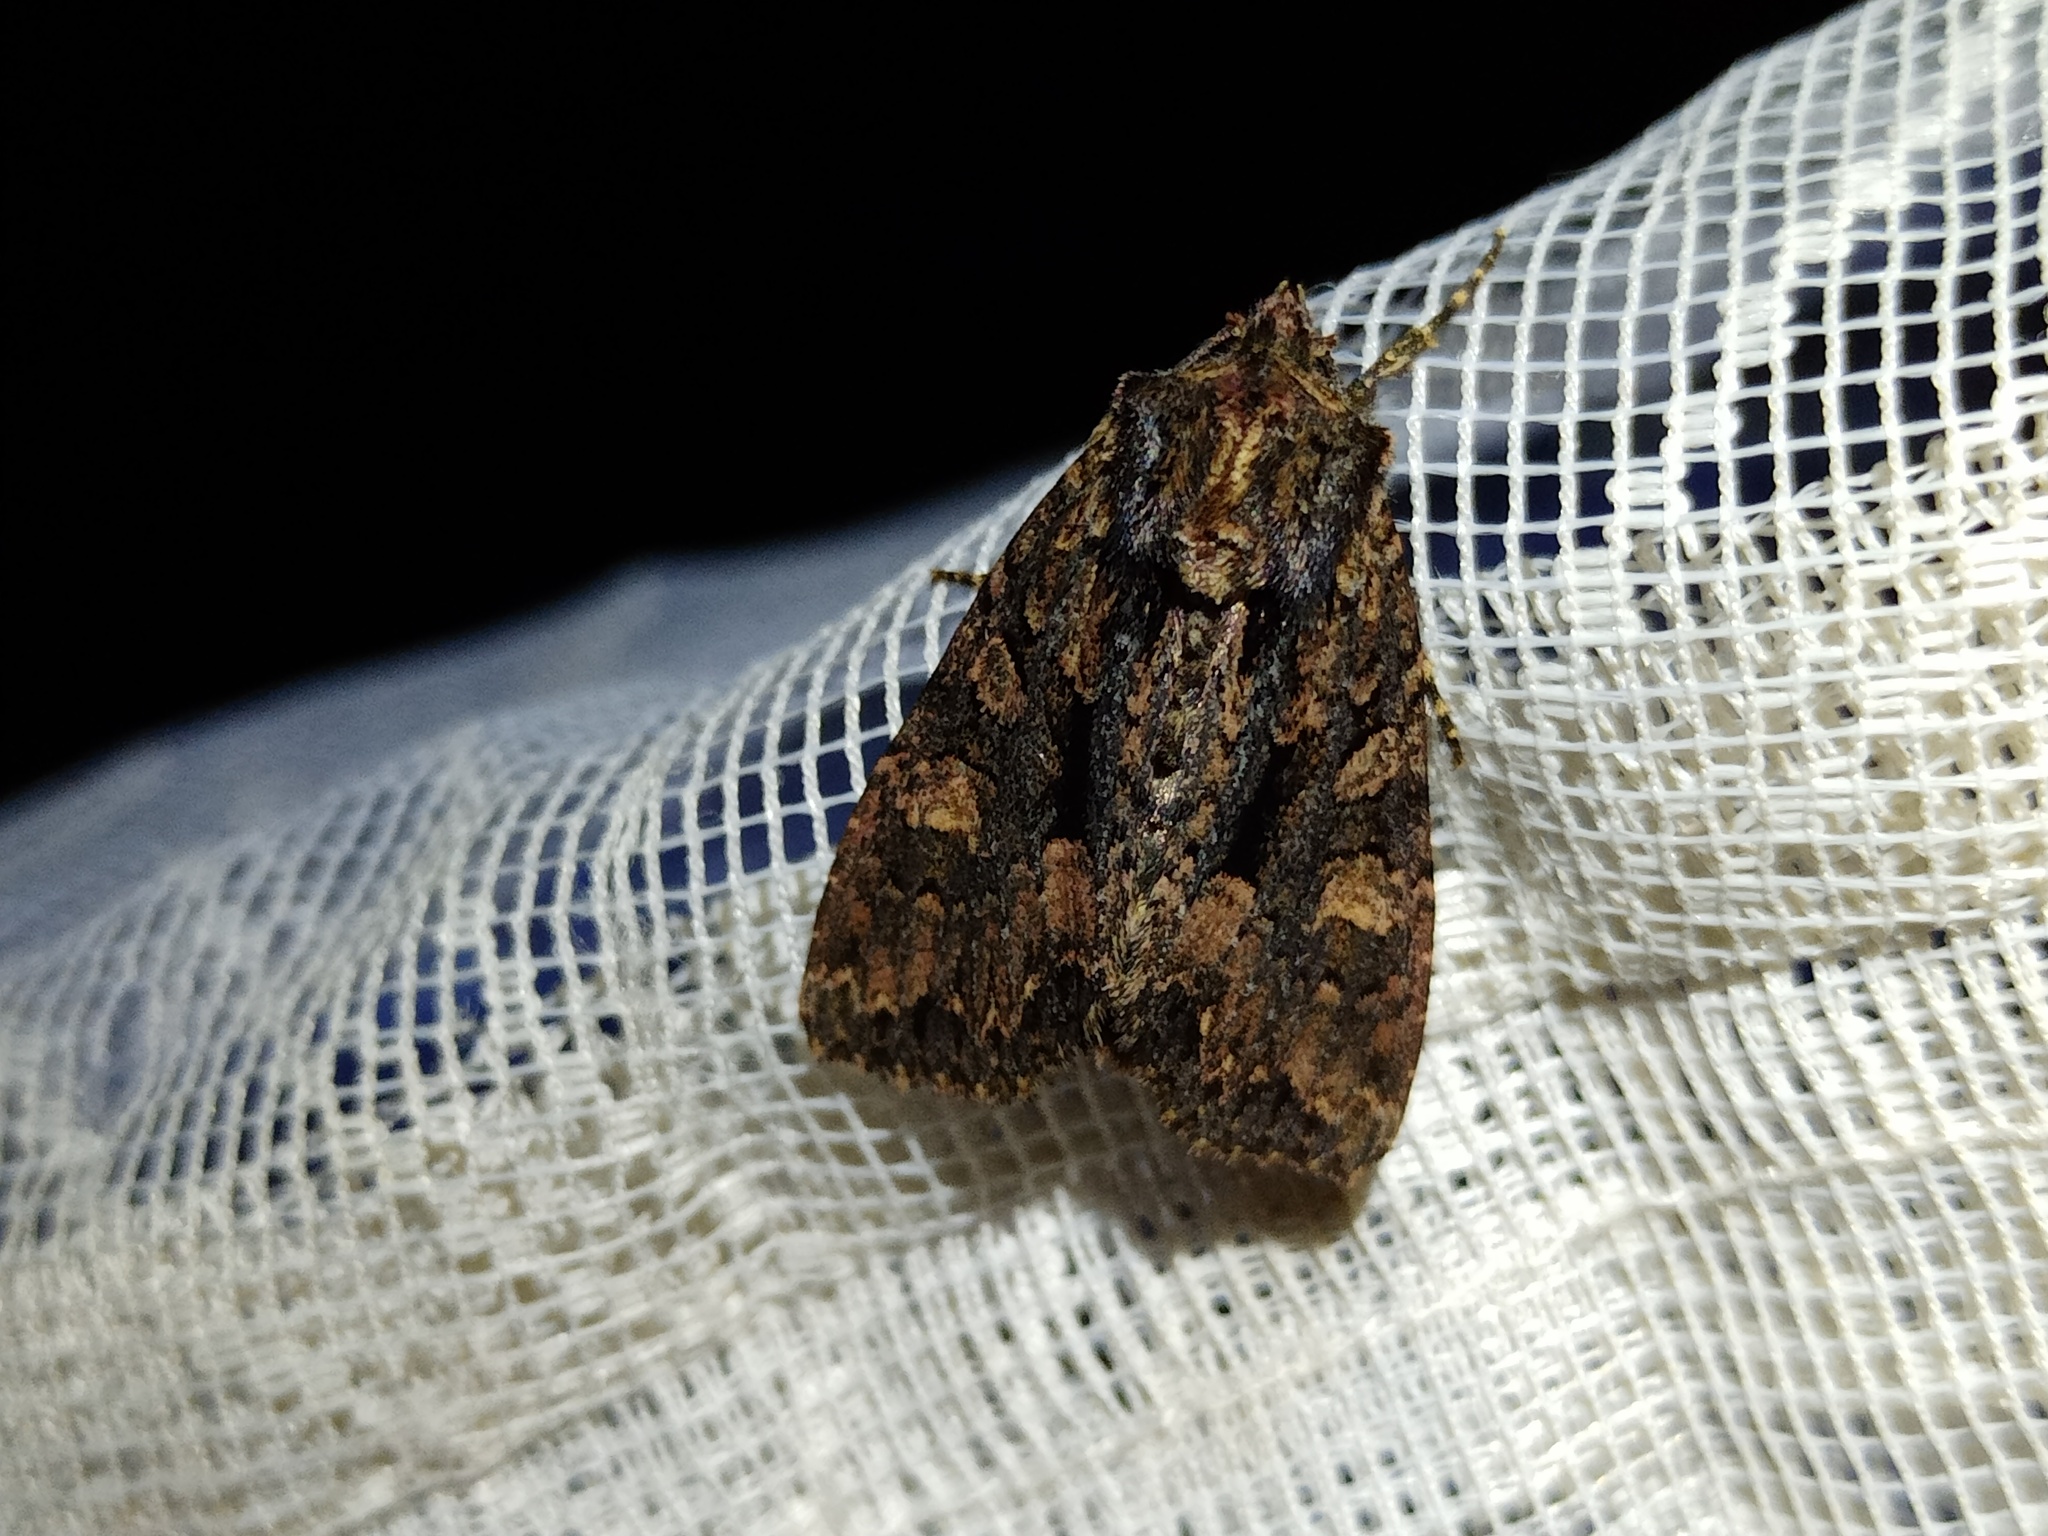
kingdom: Animalia
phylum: Arthropoda
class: Insecta
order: Lepidoptera
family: Noctuidae
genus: Mniotype
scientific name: Mniotype satura
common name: Beautiful arches
